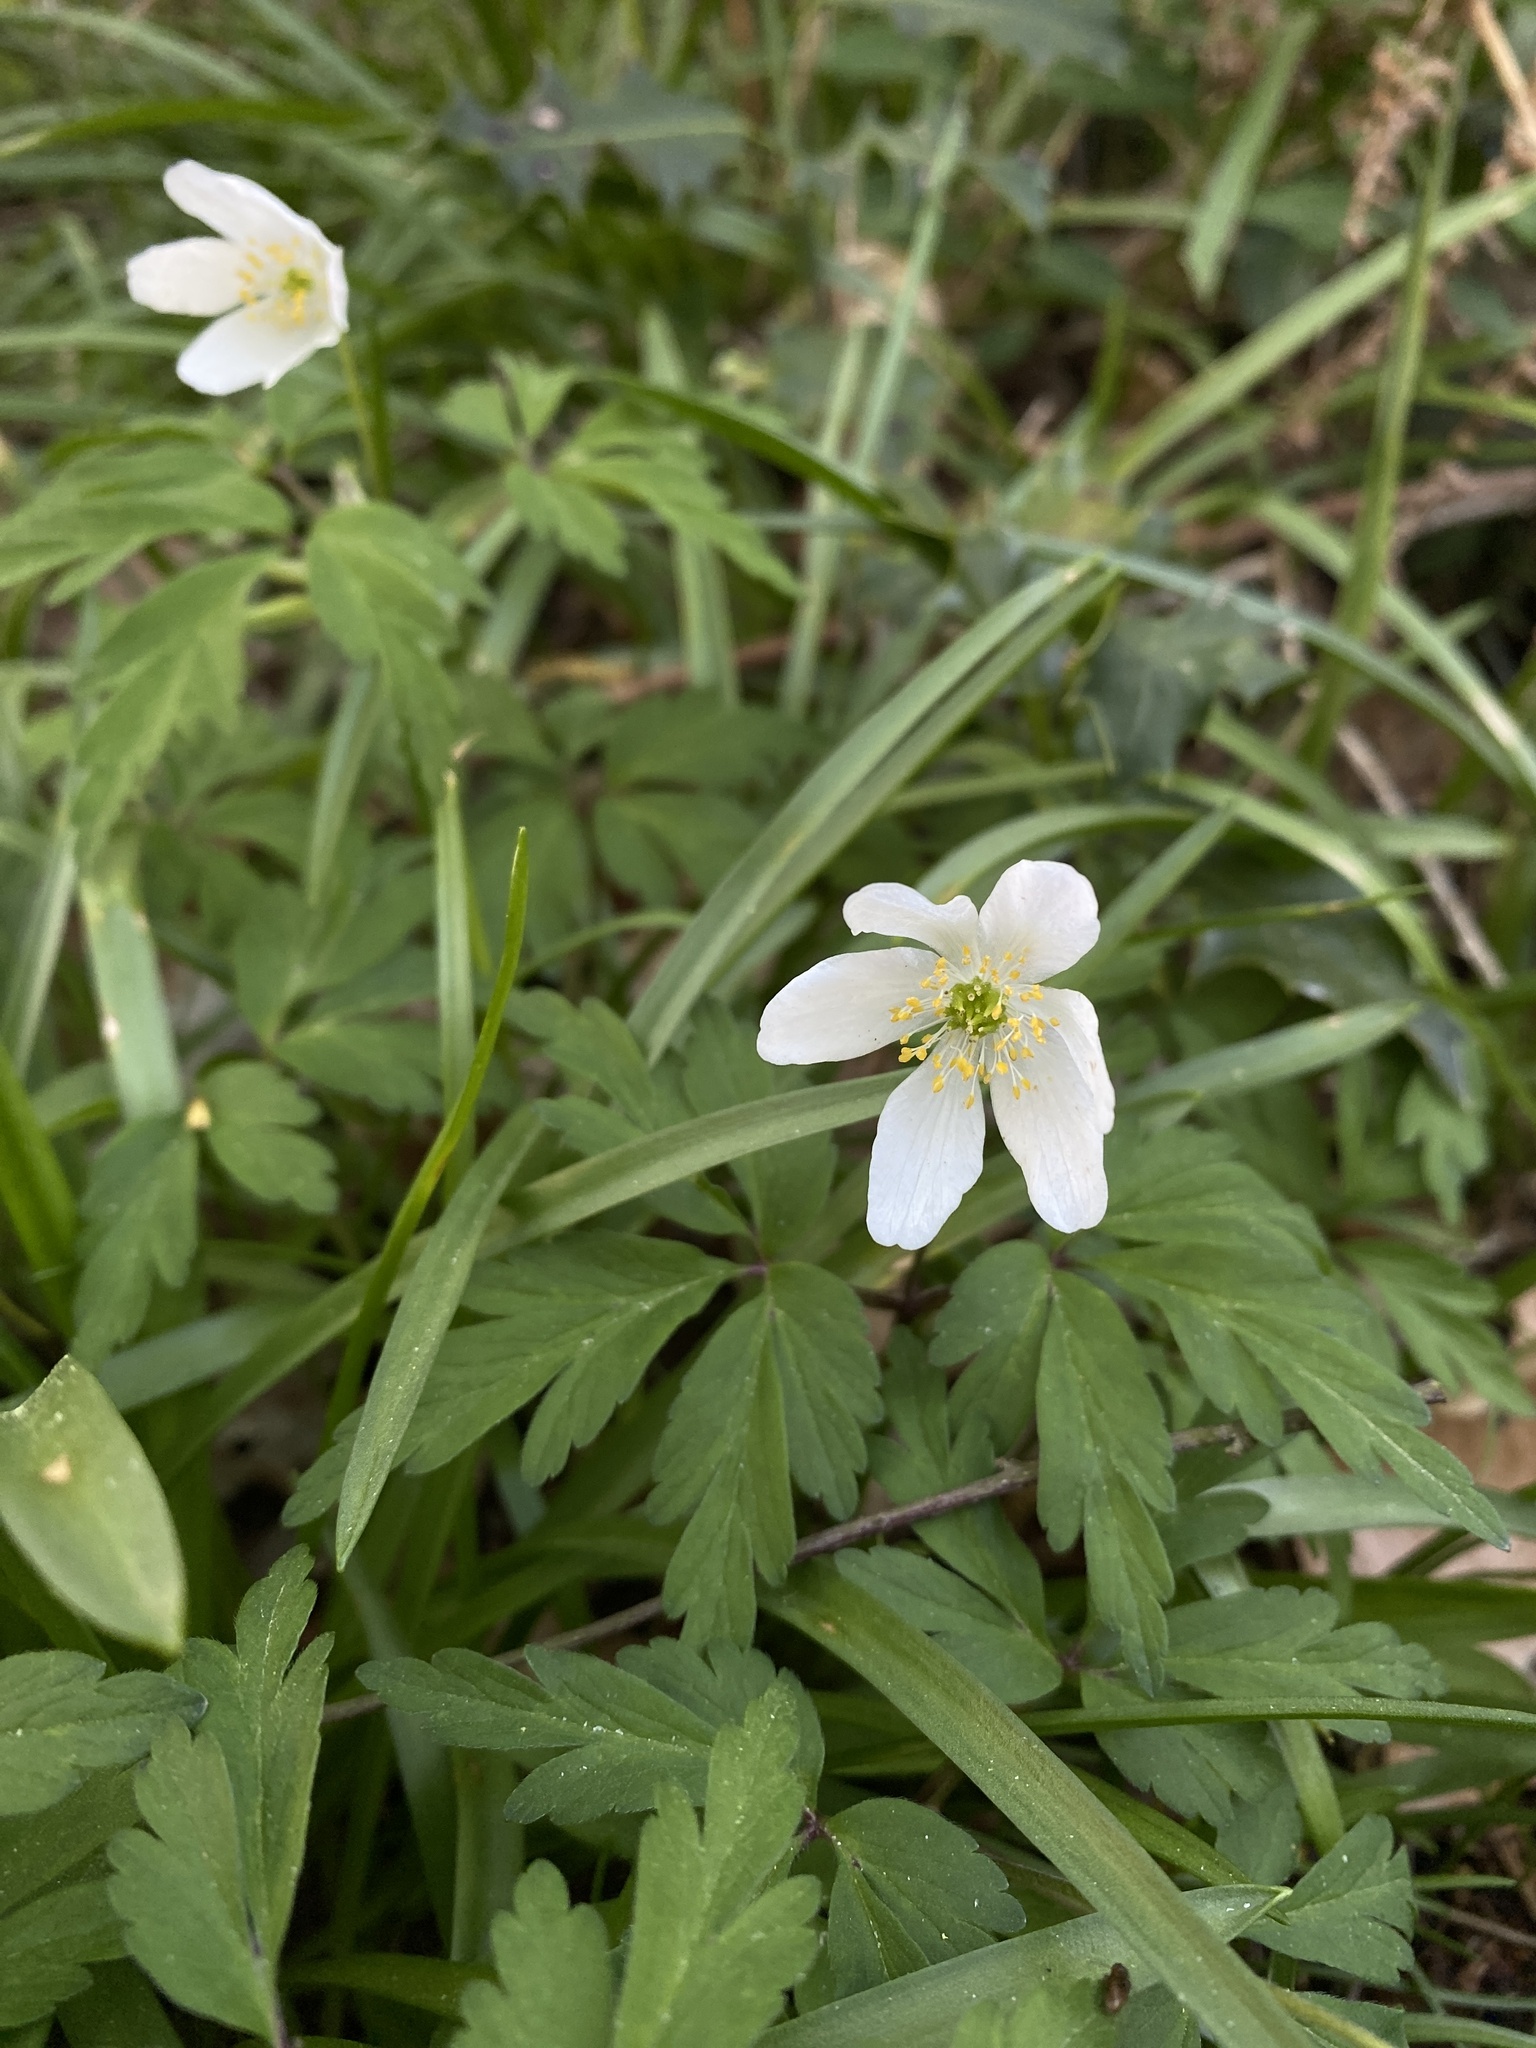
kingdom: Plantae
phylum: Tracheophyta
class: Magnoliopsida
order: Ranunculales
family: Ranunculaceae
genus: Anemone
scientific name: Anemone nemorosa
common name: Wood anemone
